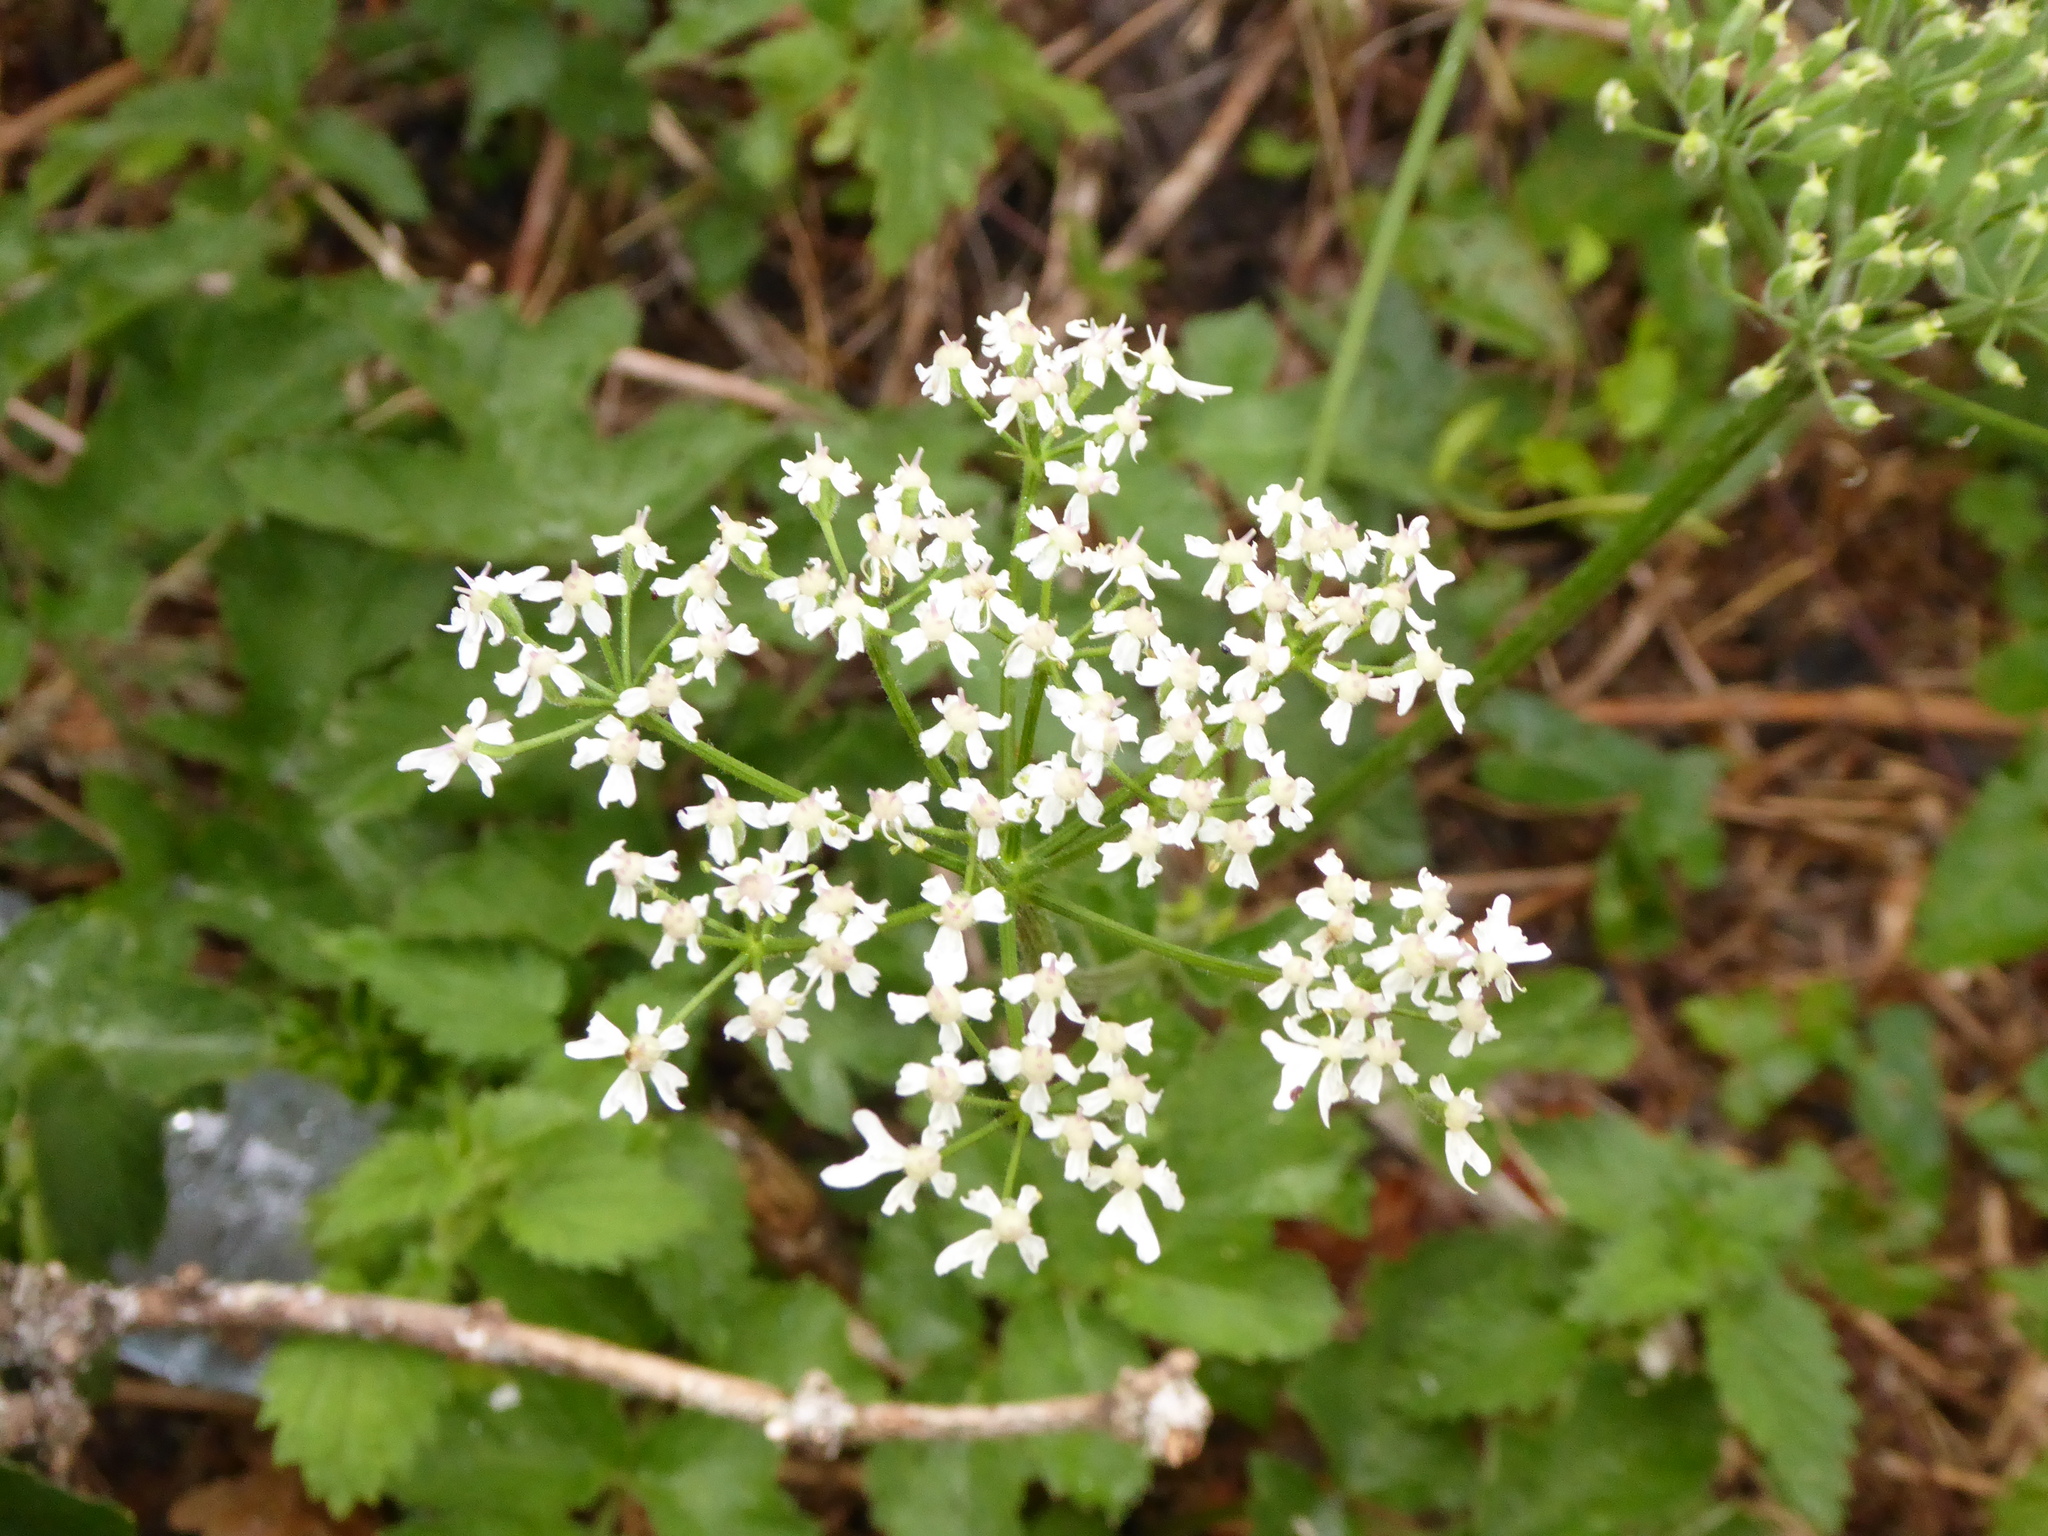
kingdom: Plantae
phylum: Tracheophyta
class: Magnoliopsida
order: Apiales
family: Apiaceae
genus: Heracleum
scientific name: Heracleum sphondylium
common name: Hogweed
